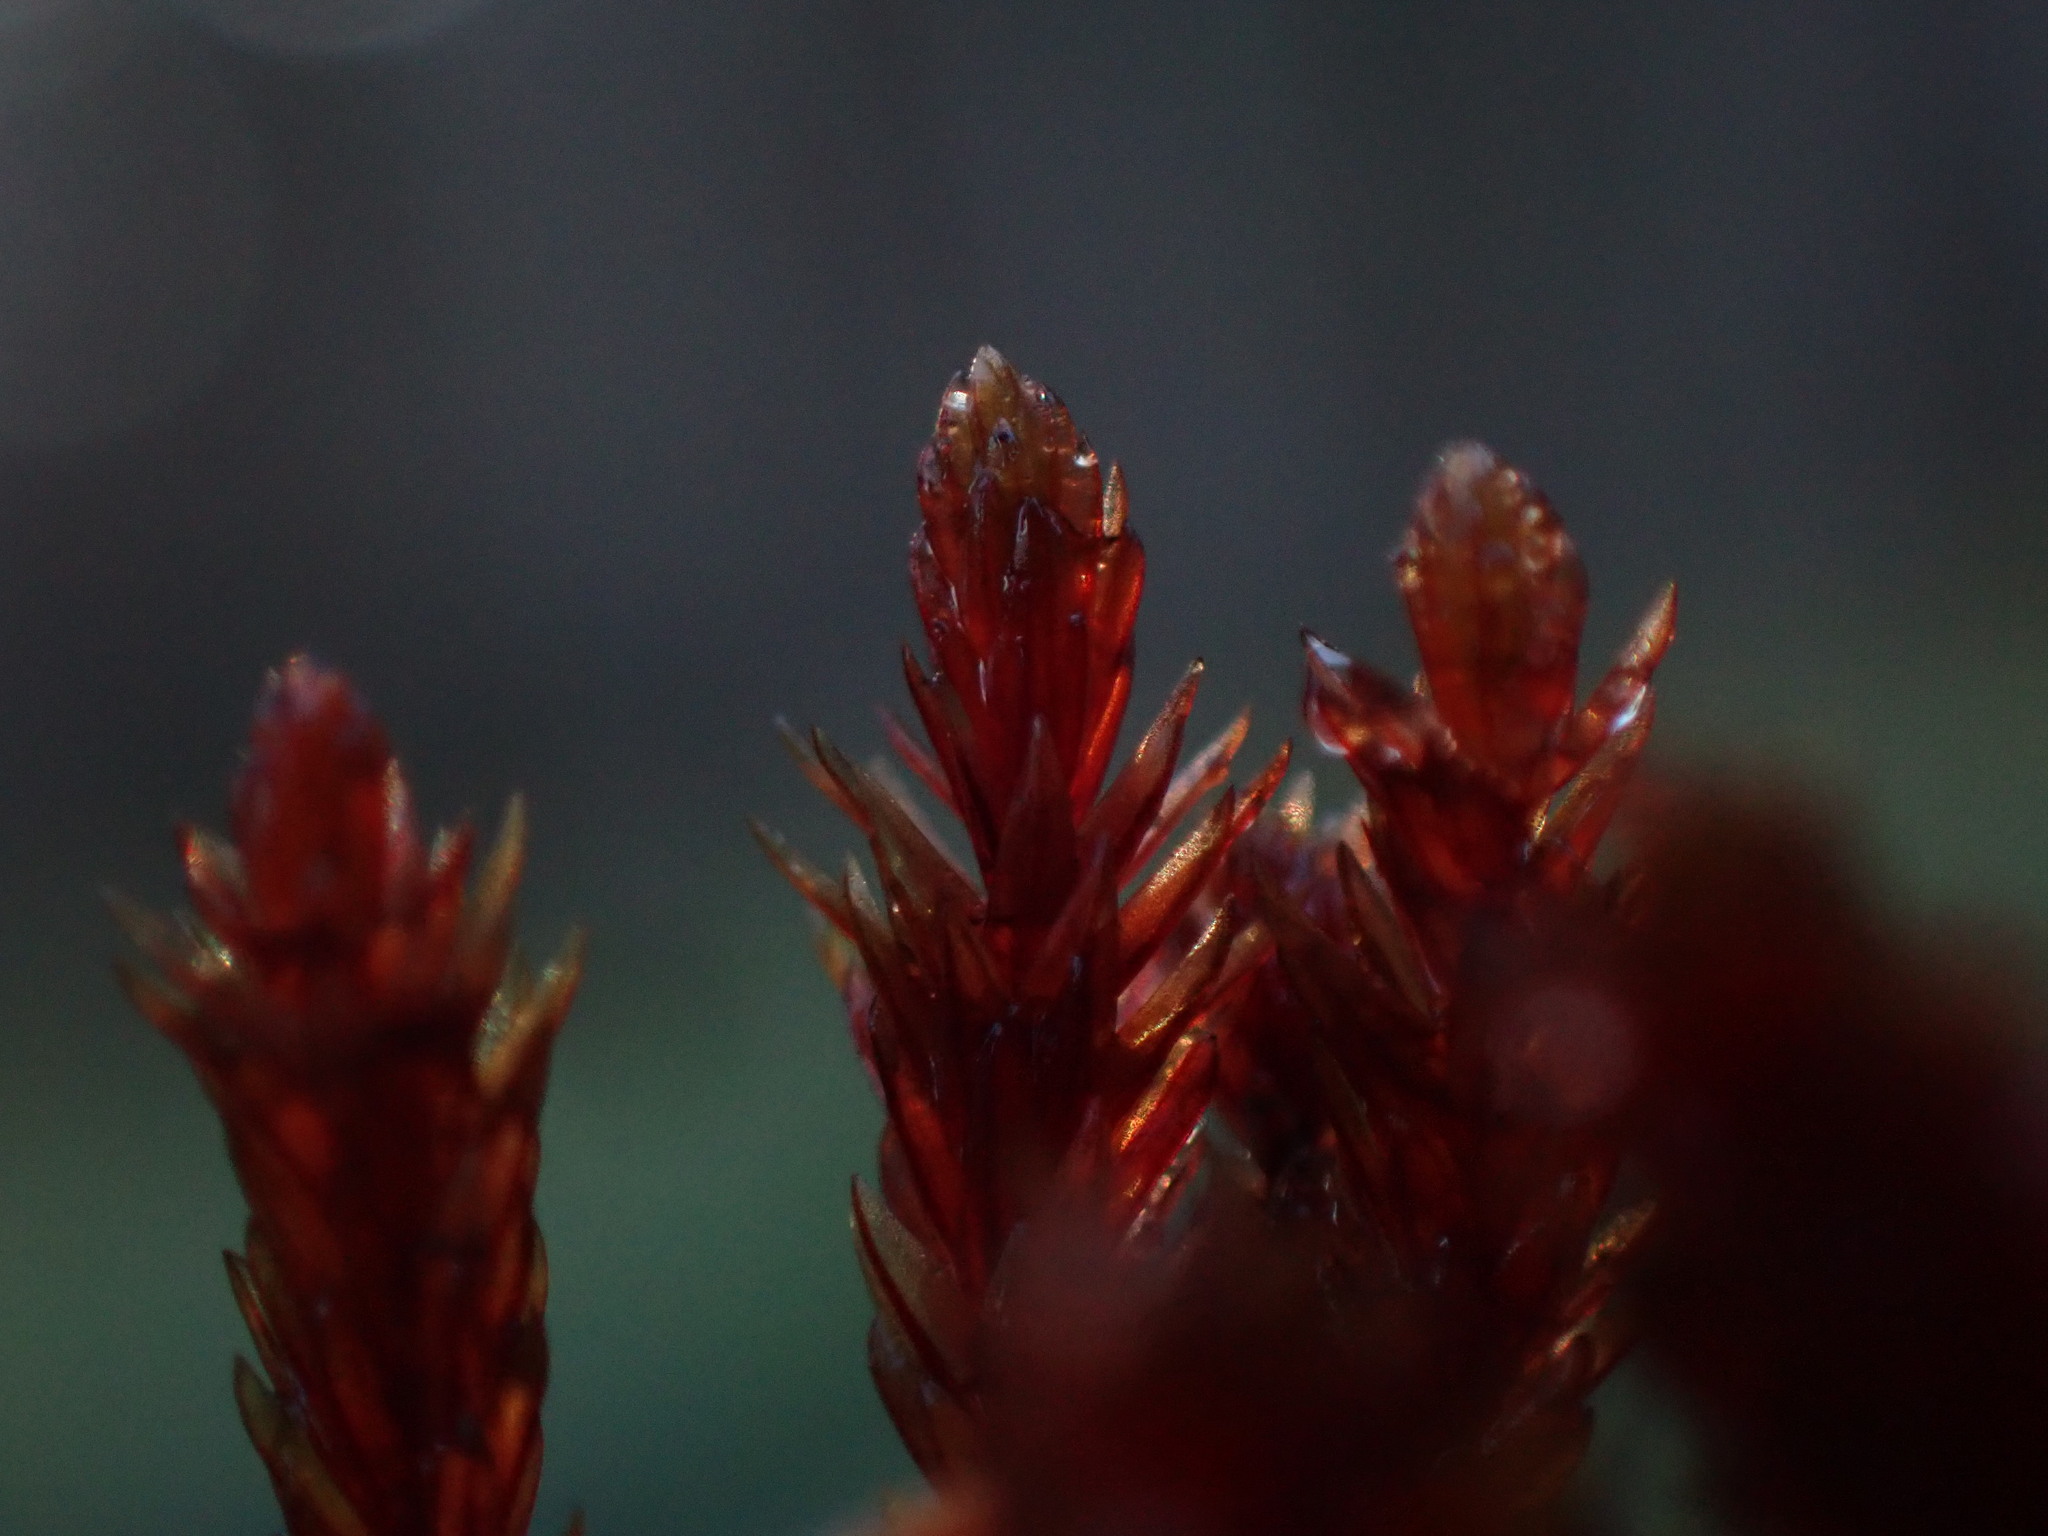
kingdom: Plantae
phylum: Bryophyta
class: Bryopsida
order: Bryales
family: Bryaceae
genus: Imbribryum
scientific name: Imbribryum miniatum
